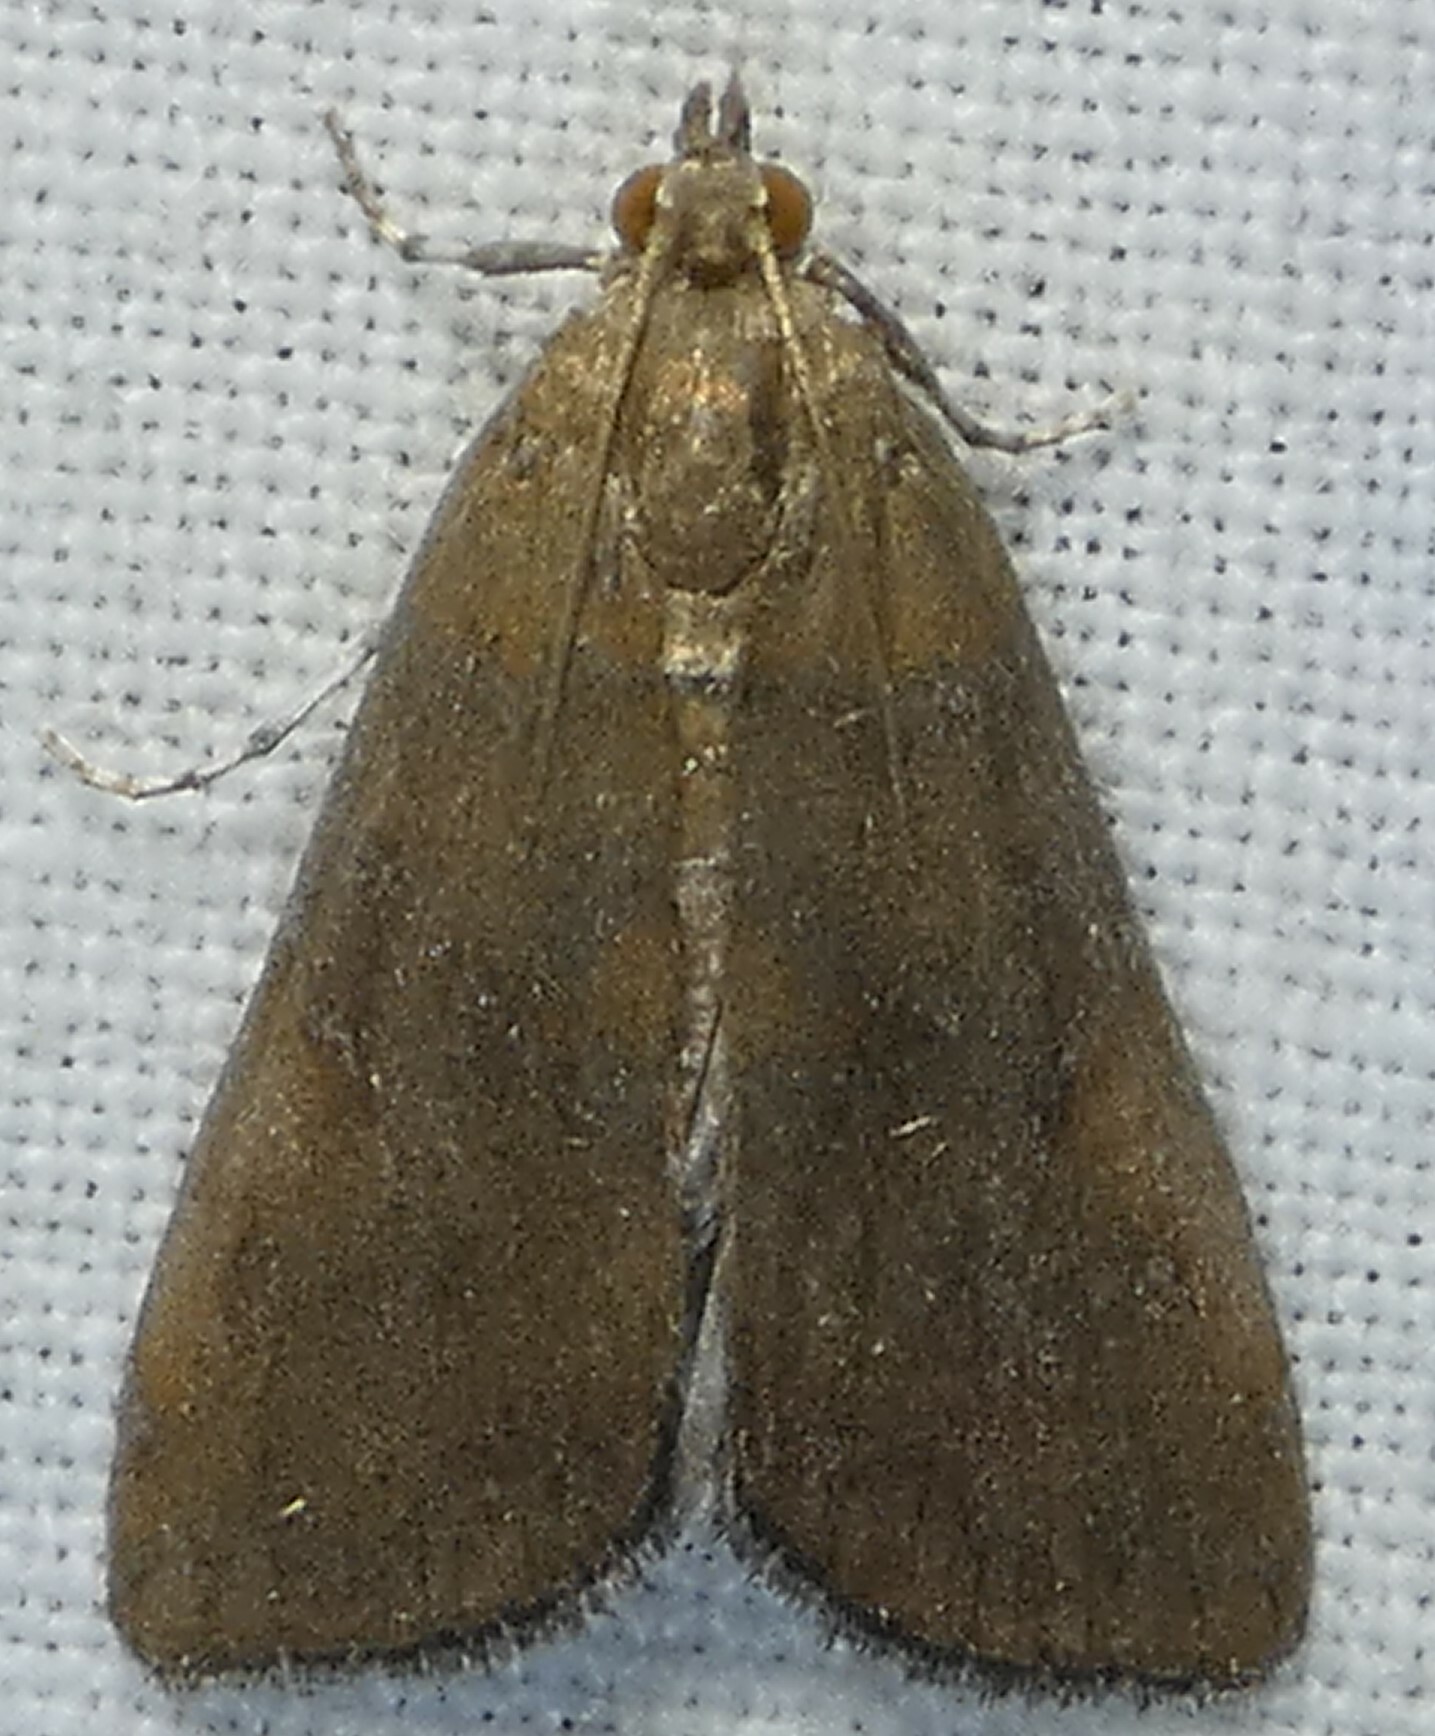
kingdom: Animalia
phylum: Arthropoda
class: Insecta
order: Lepidoptera
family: Crambidae
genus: Elophila
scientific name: Elophila gyralis
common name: Waterlily borer moth
